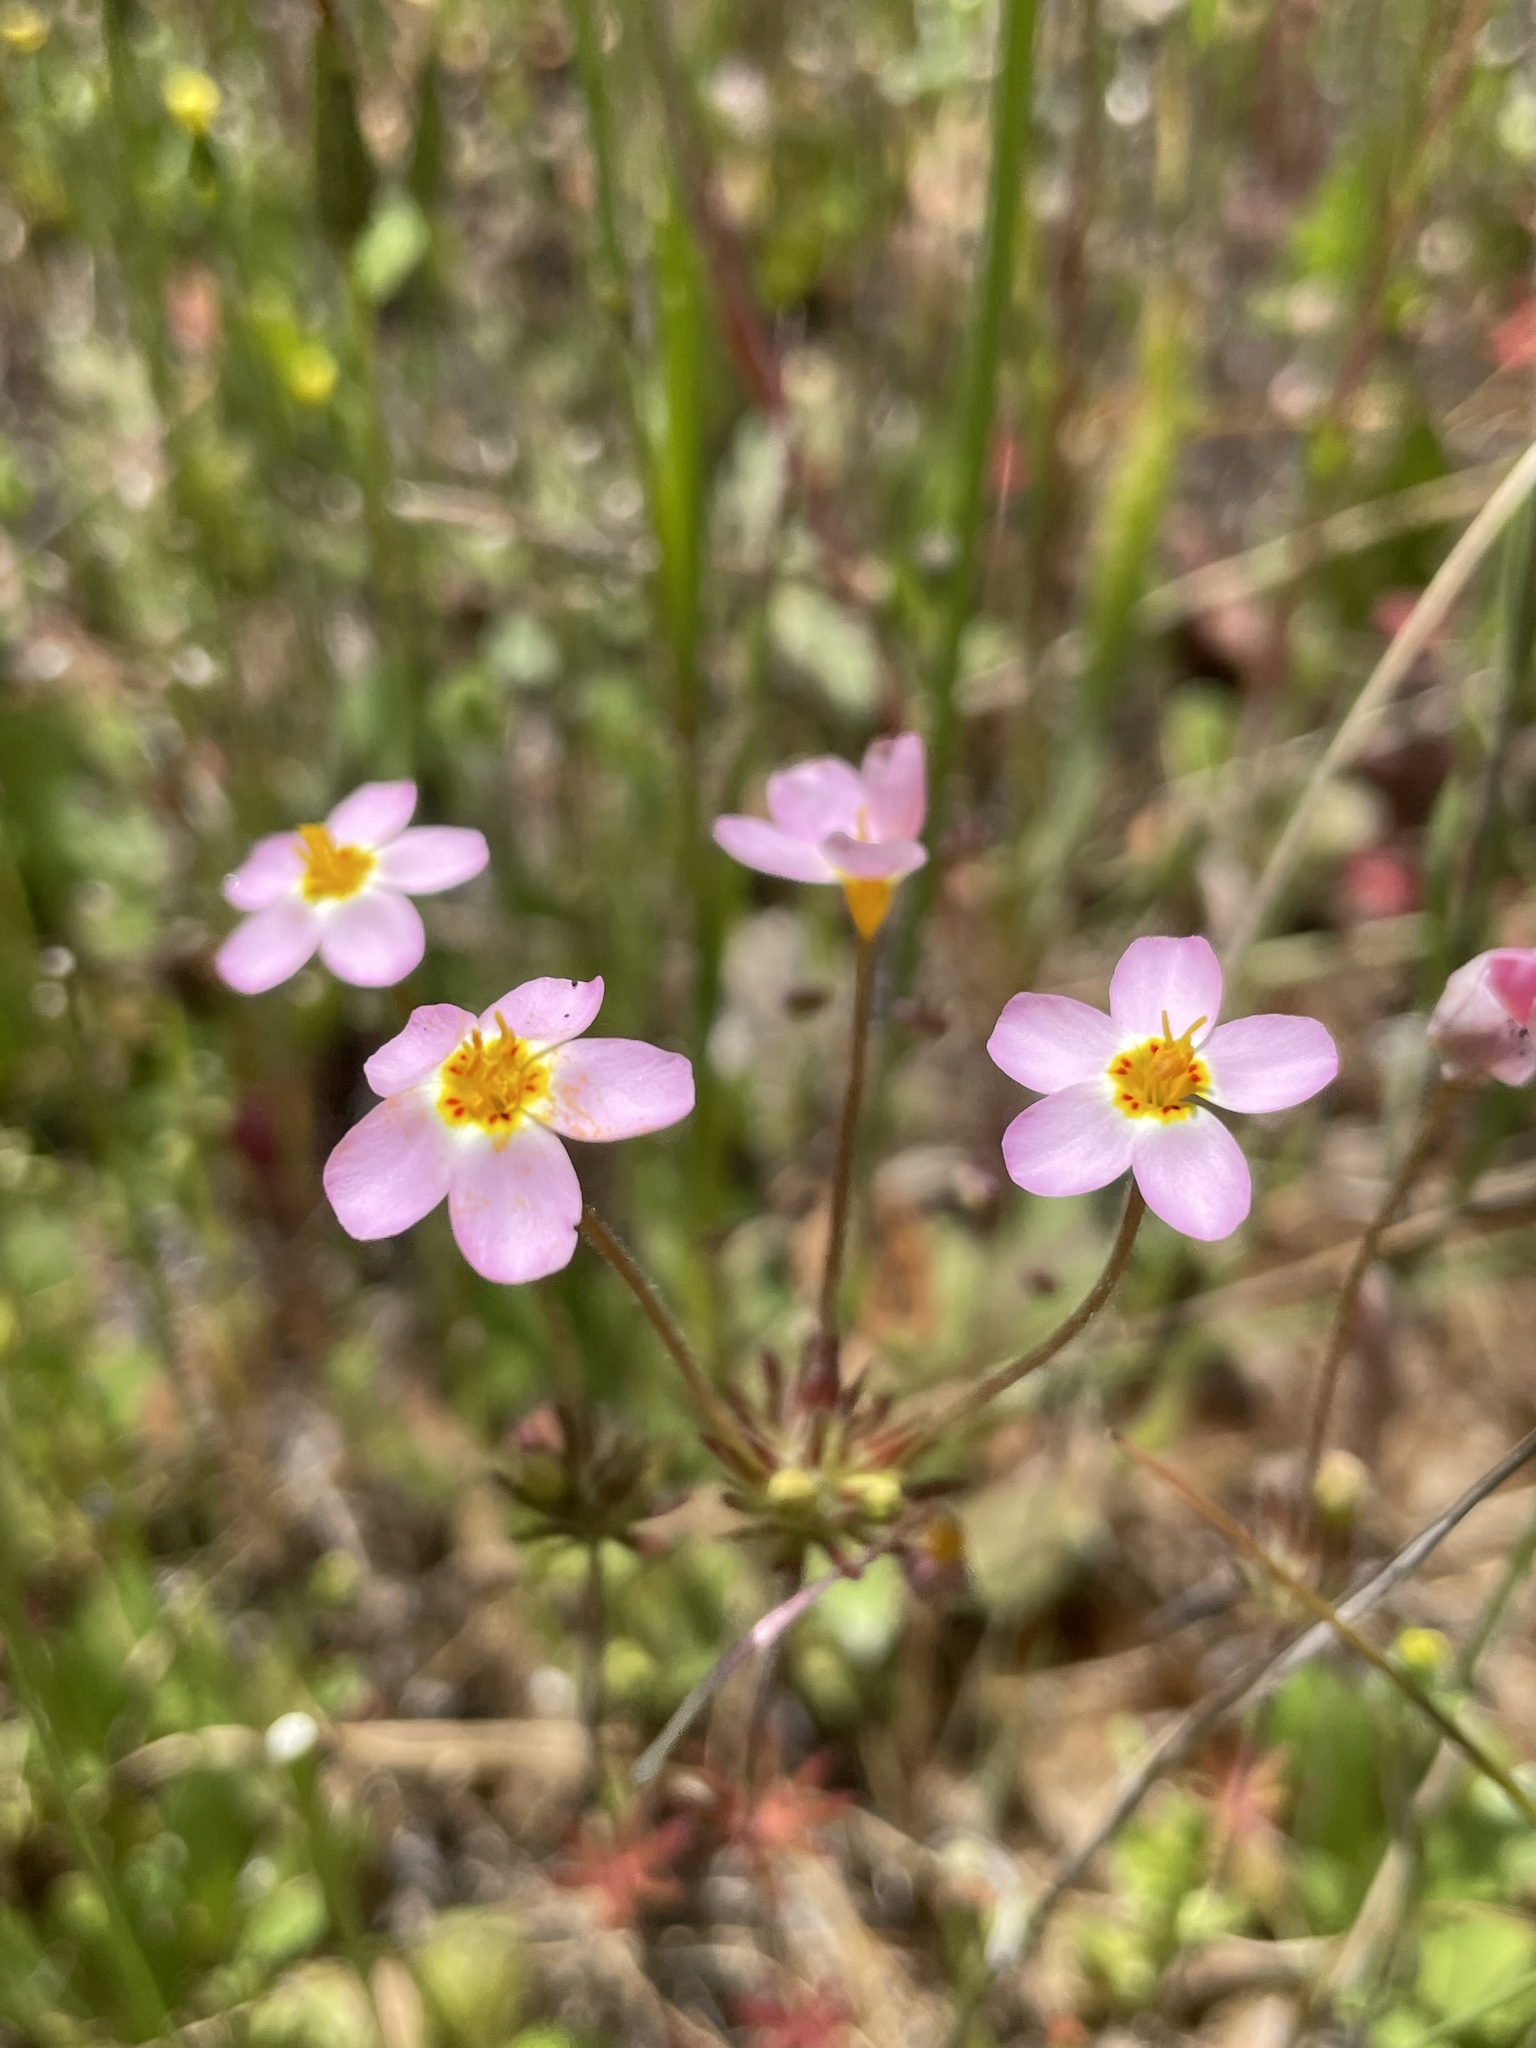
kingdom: Plantae
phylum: Tracheophyta
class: Magnoliopsida
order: Ericales
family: Polemoniaceae
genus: Leptosiphon
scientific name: Leptosiphon parviflorus
